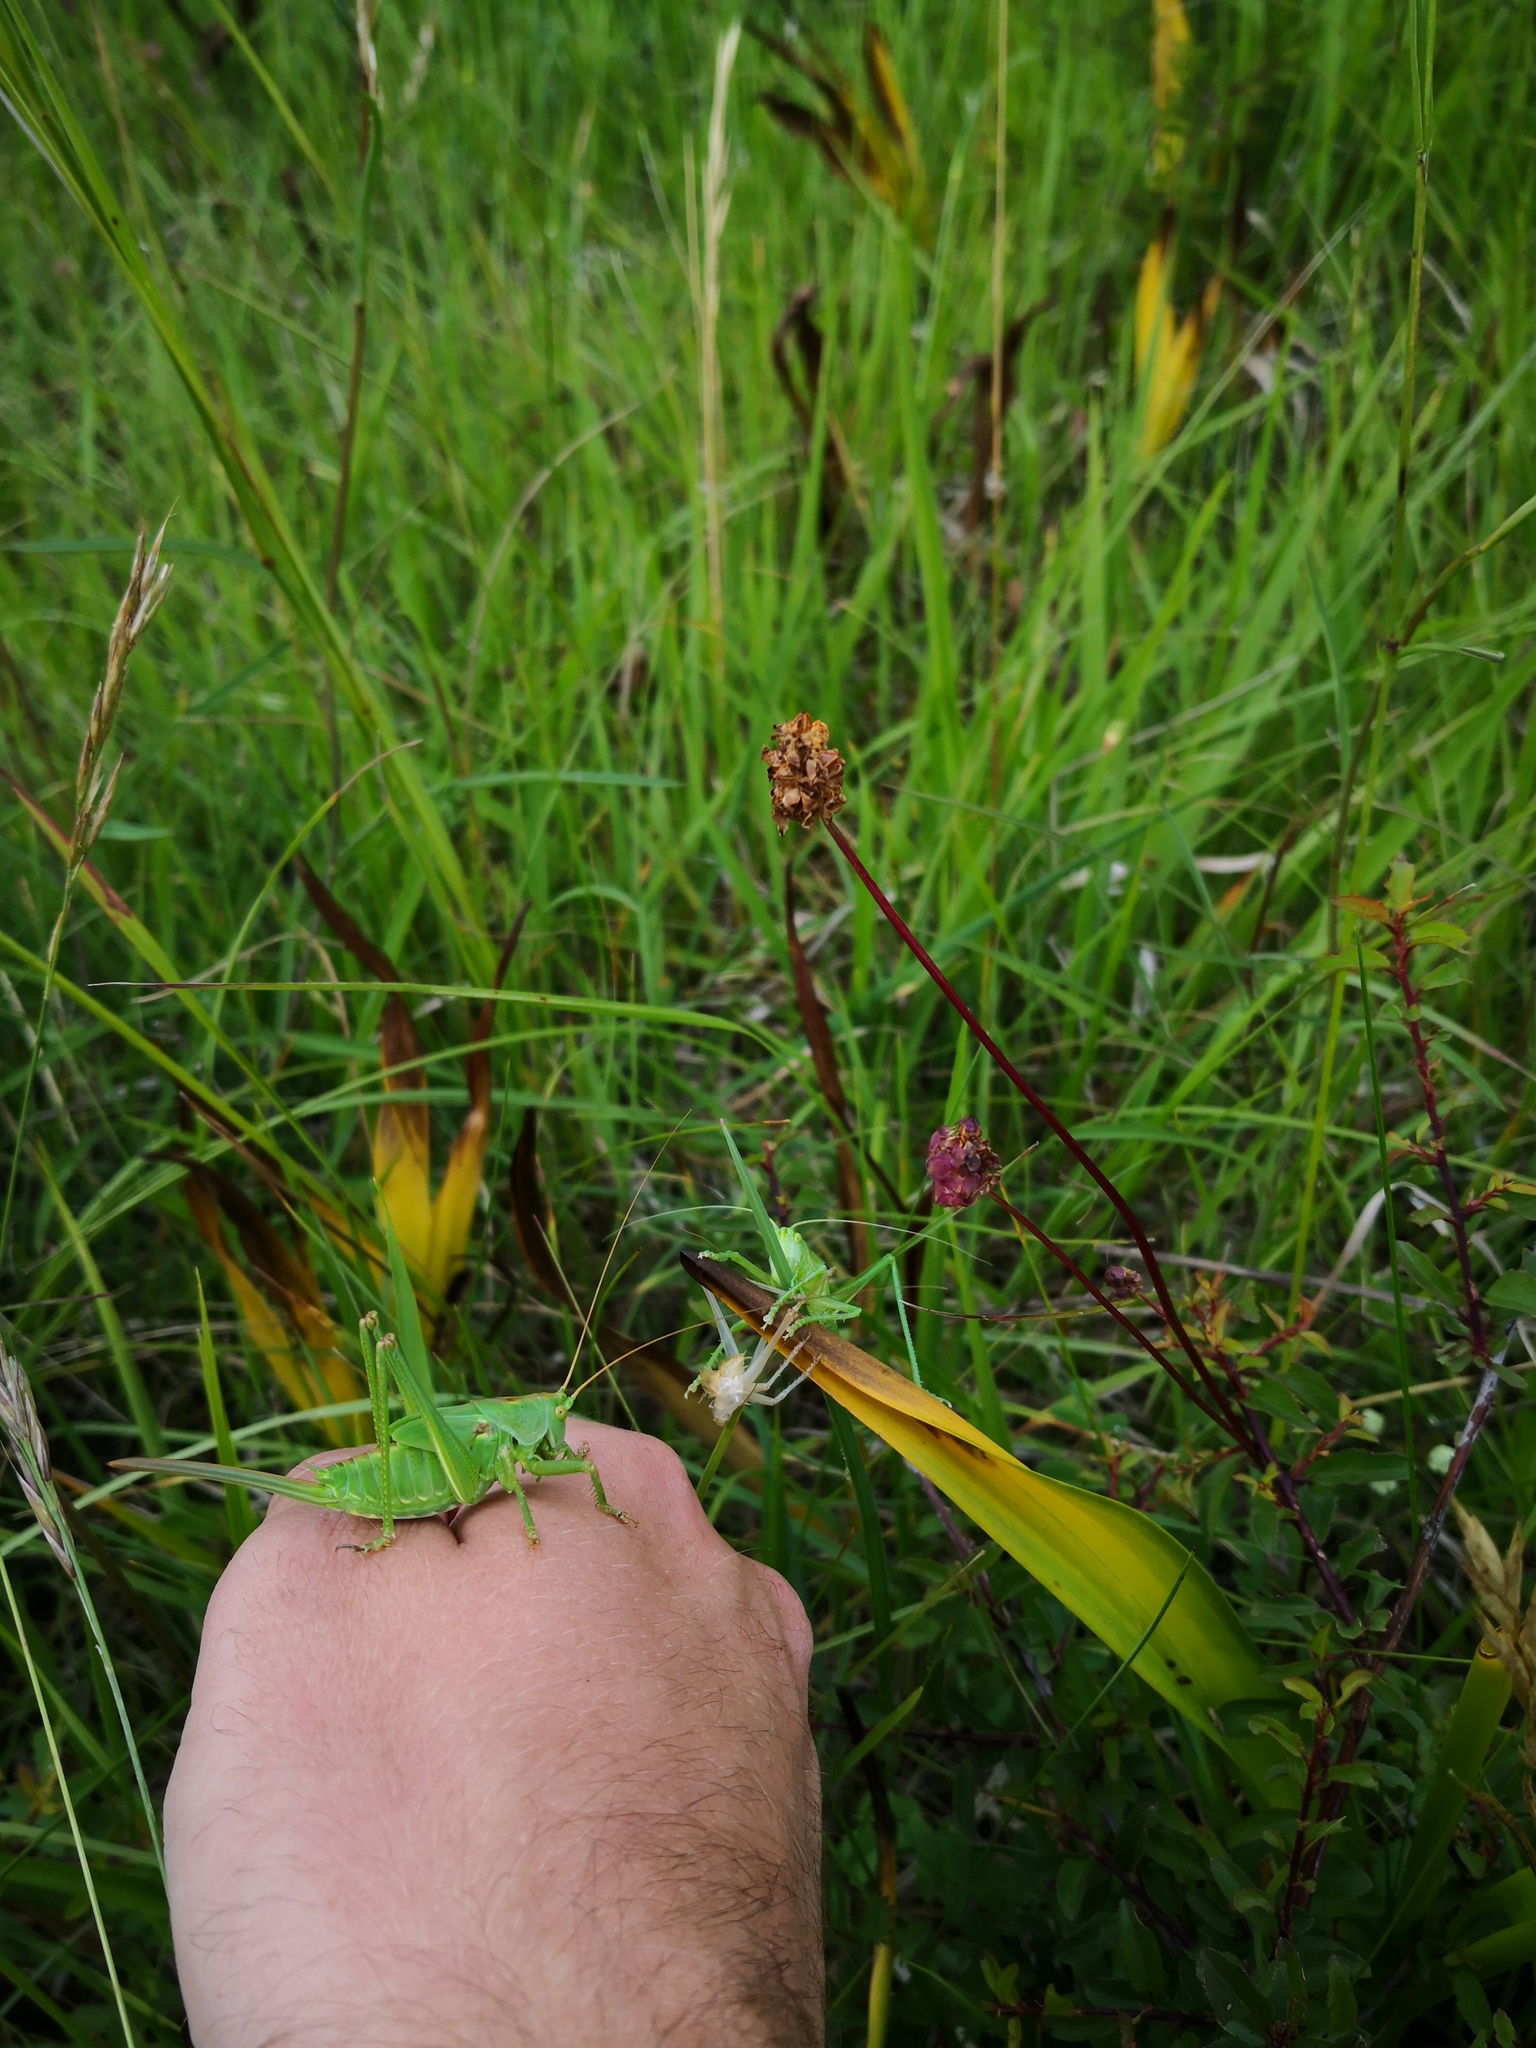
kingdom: Animalia
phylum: Arthropoda
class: Insecta
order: Orthoptera
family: Tettigoniidae
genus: Tettigonia
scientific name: Tettigonia viridissima
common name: Great green bush-cricket
